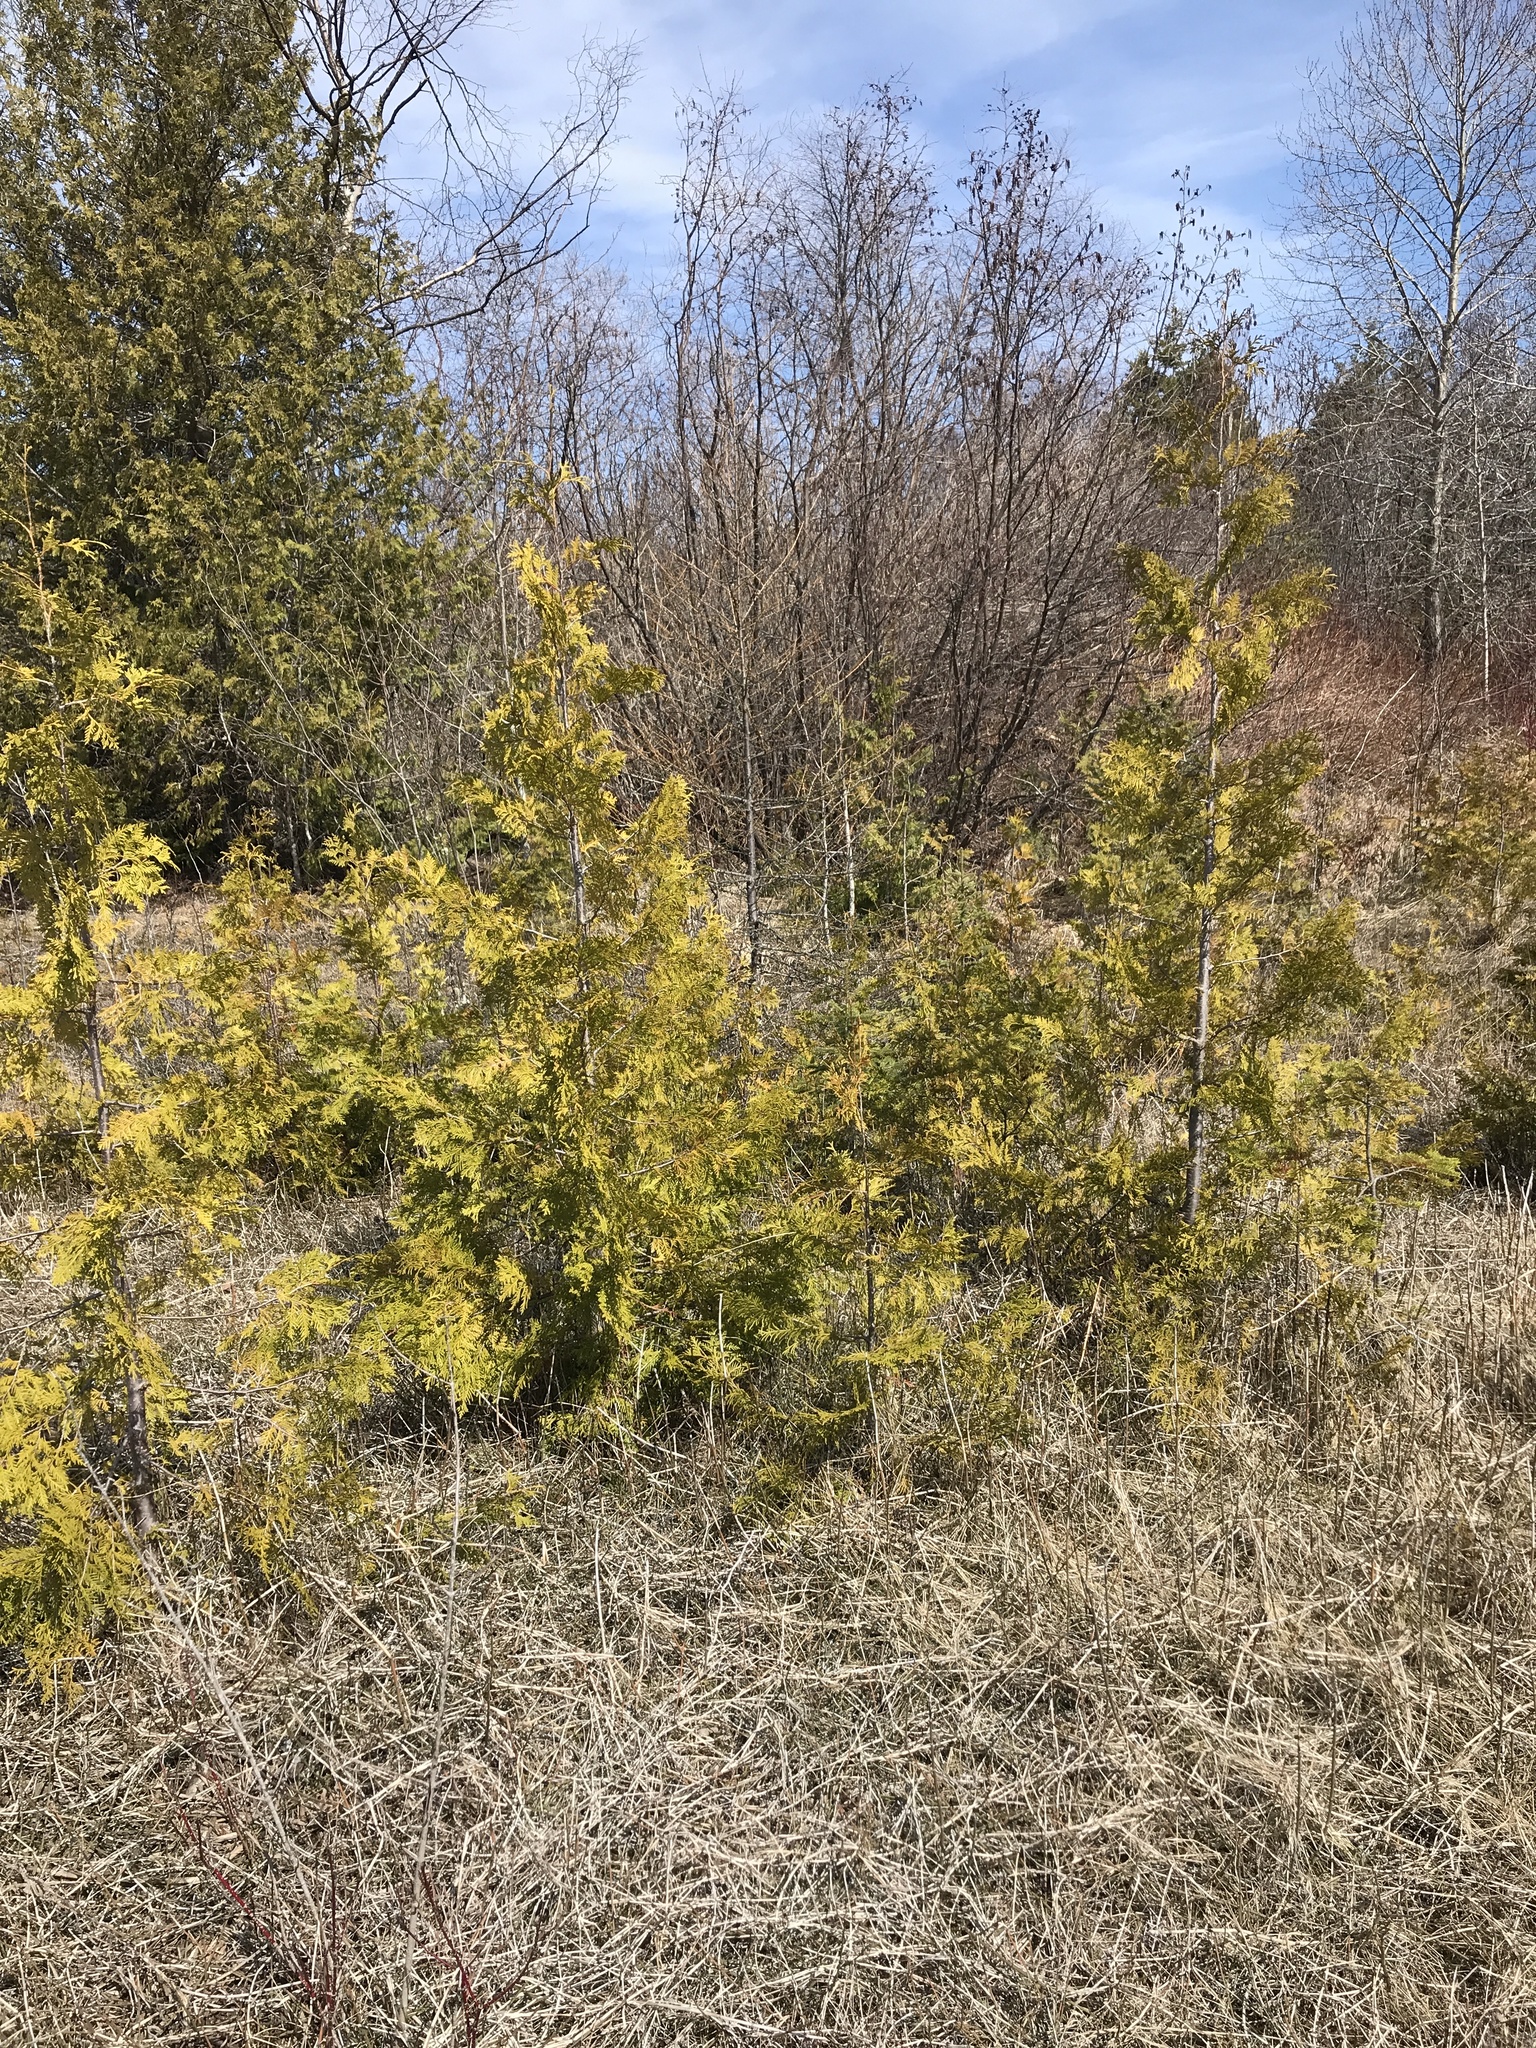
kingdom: Plantae
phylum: Tracheophyta
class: Pinopsida
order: Pinales
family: Cupressaceae
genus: Thuja
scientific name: Thuja occidentalis
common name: Northern white-cedar
